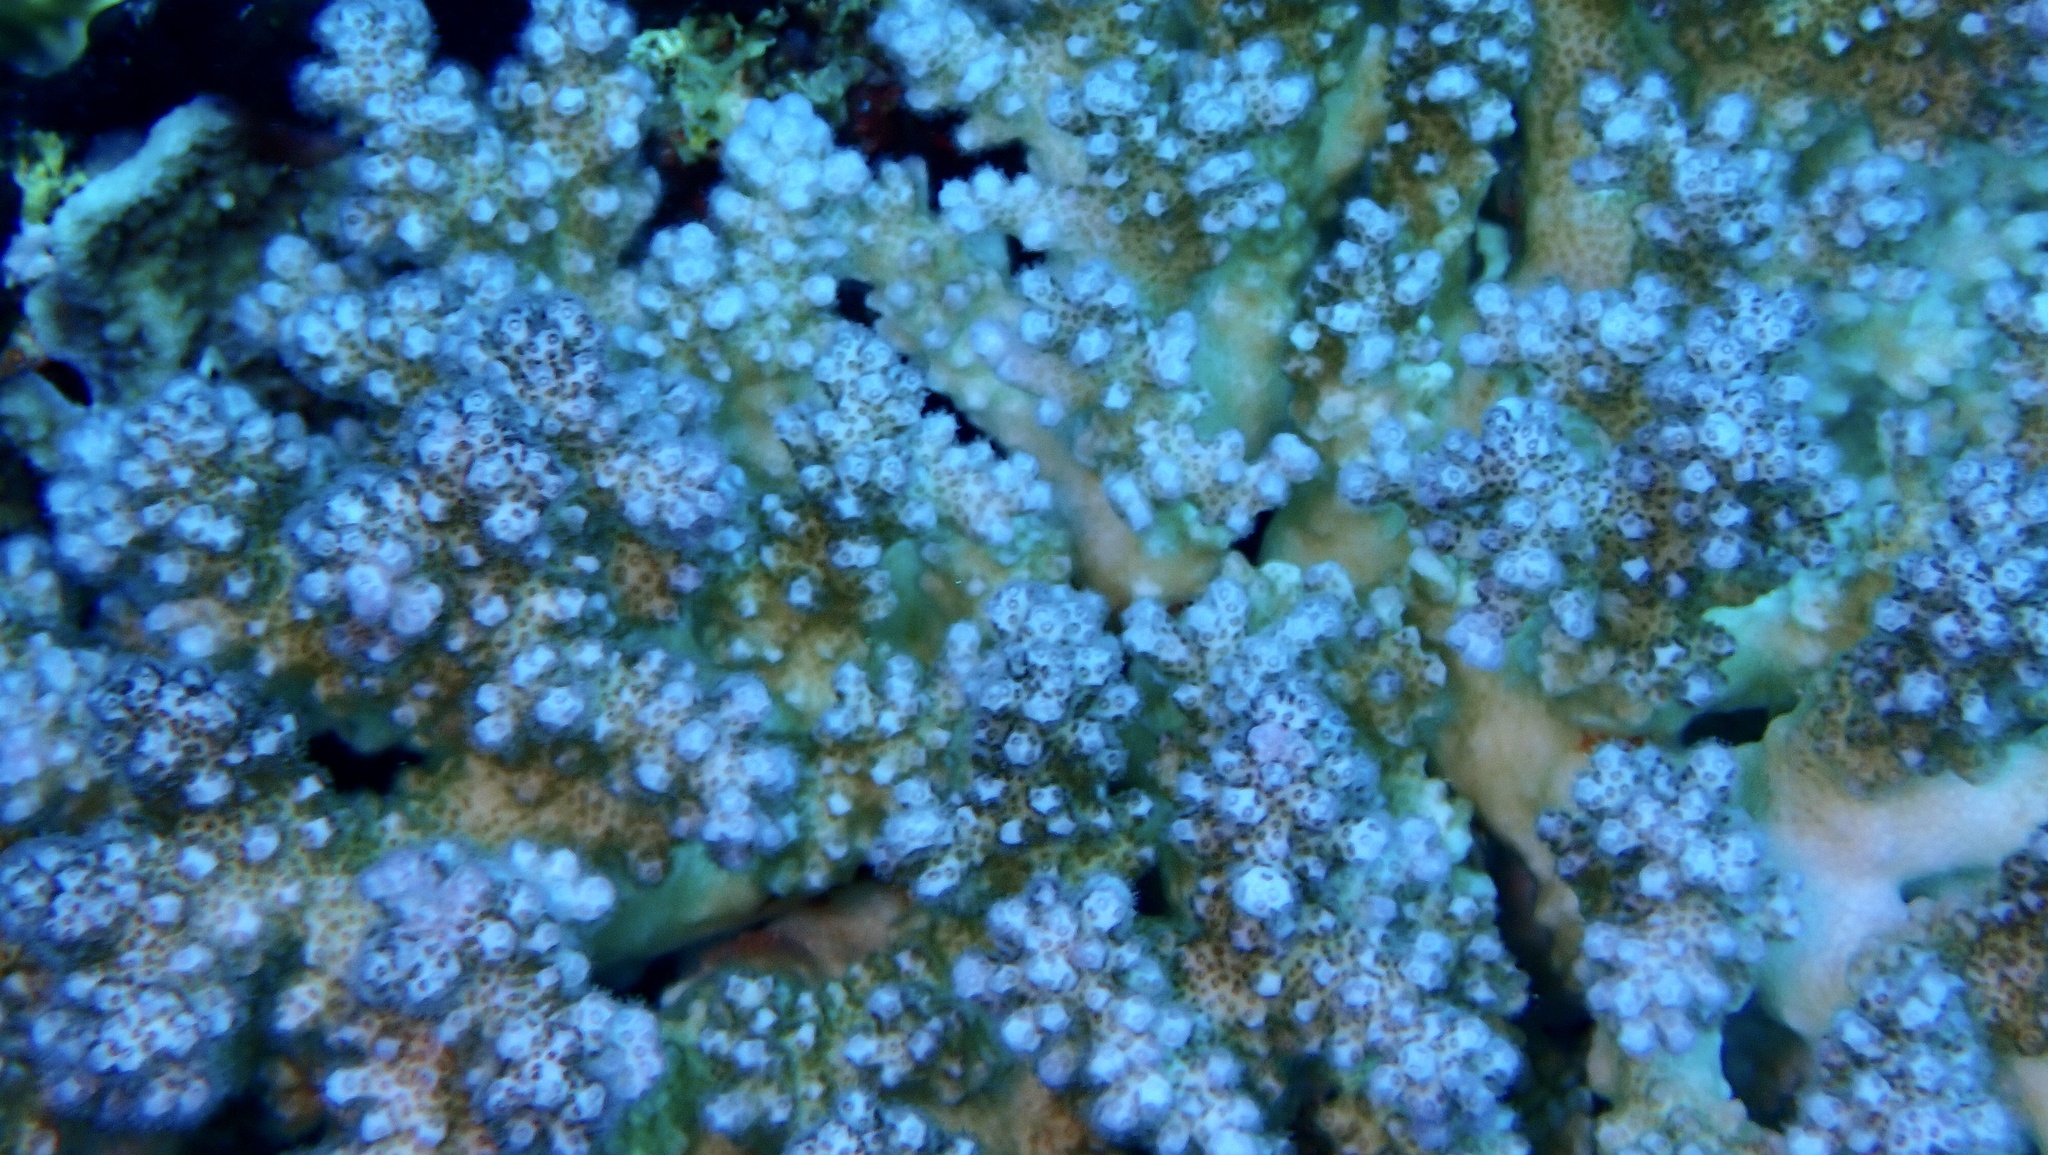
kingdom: Animalia
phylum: Cnidaria
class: Anthozoa
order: Scleractinia
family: Pocilloporidae
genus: Pocillopora
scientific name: Pocillopora verrucosa
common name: Cauliflower coral
